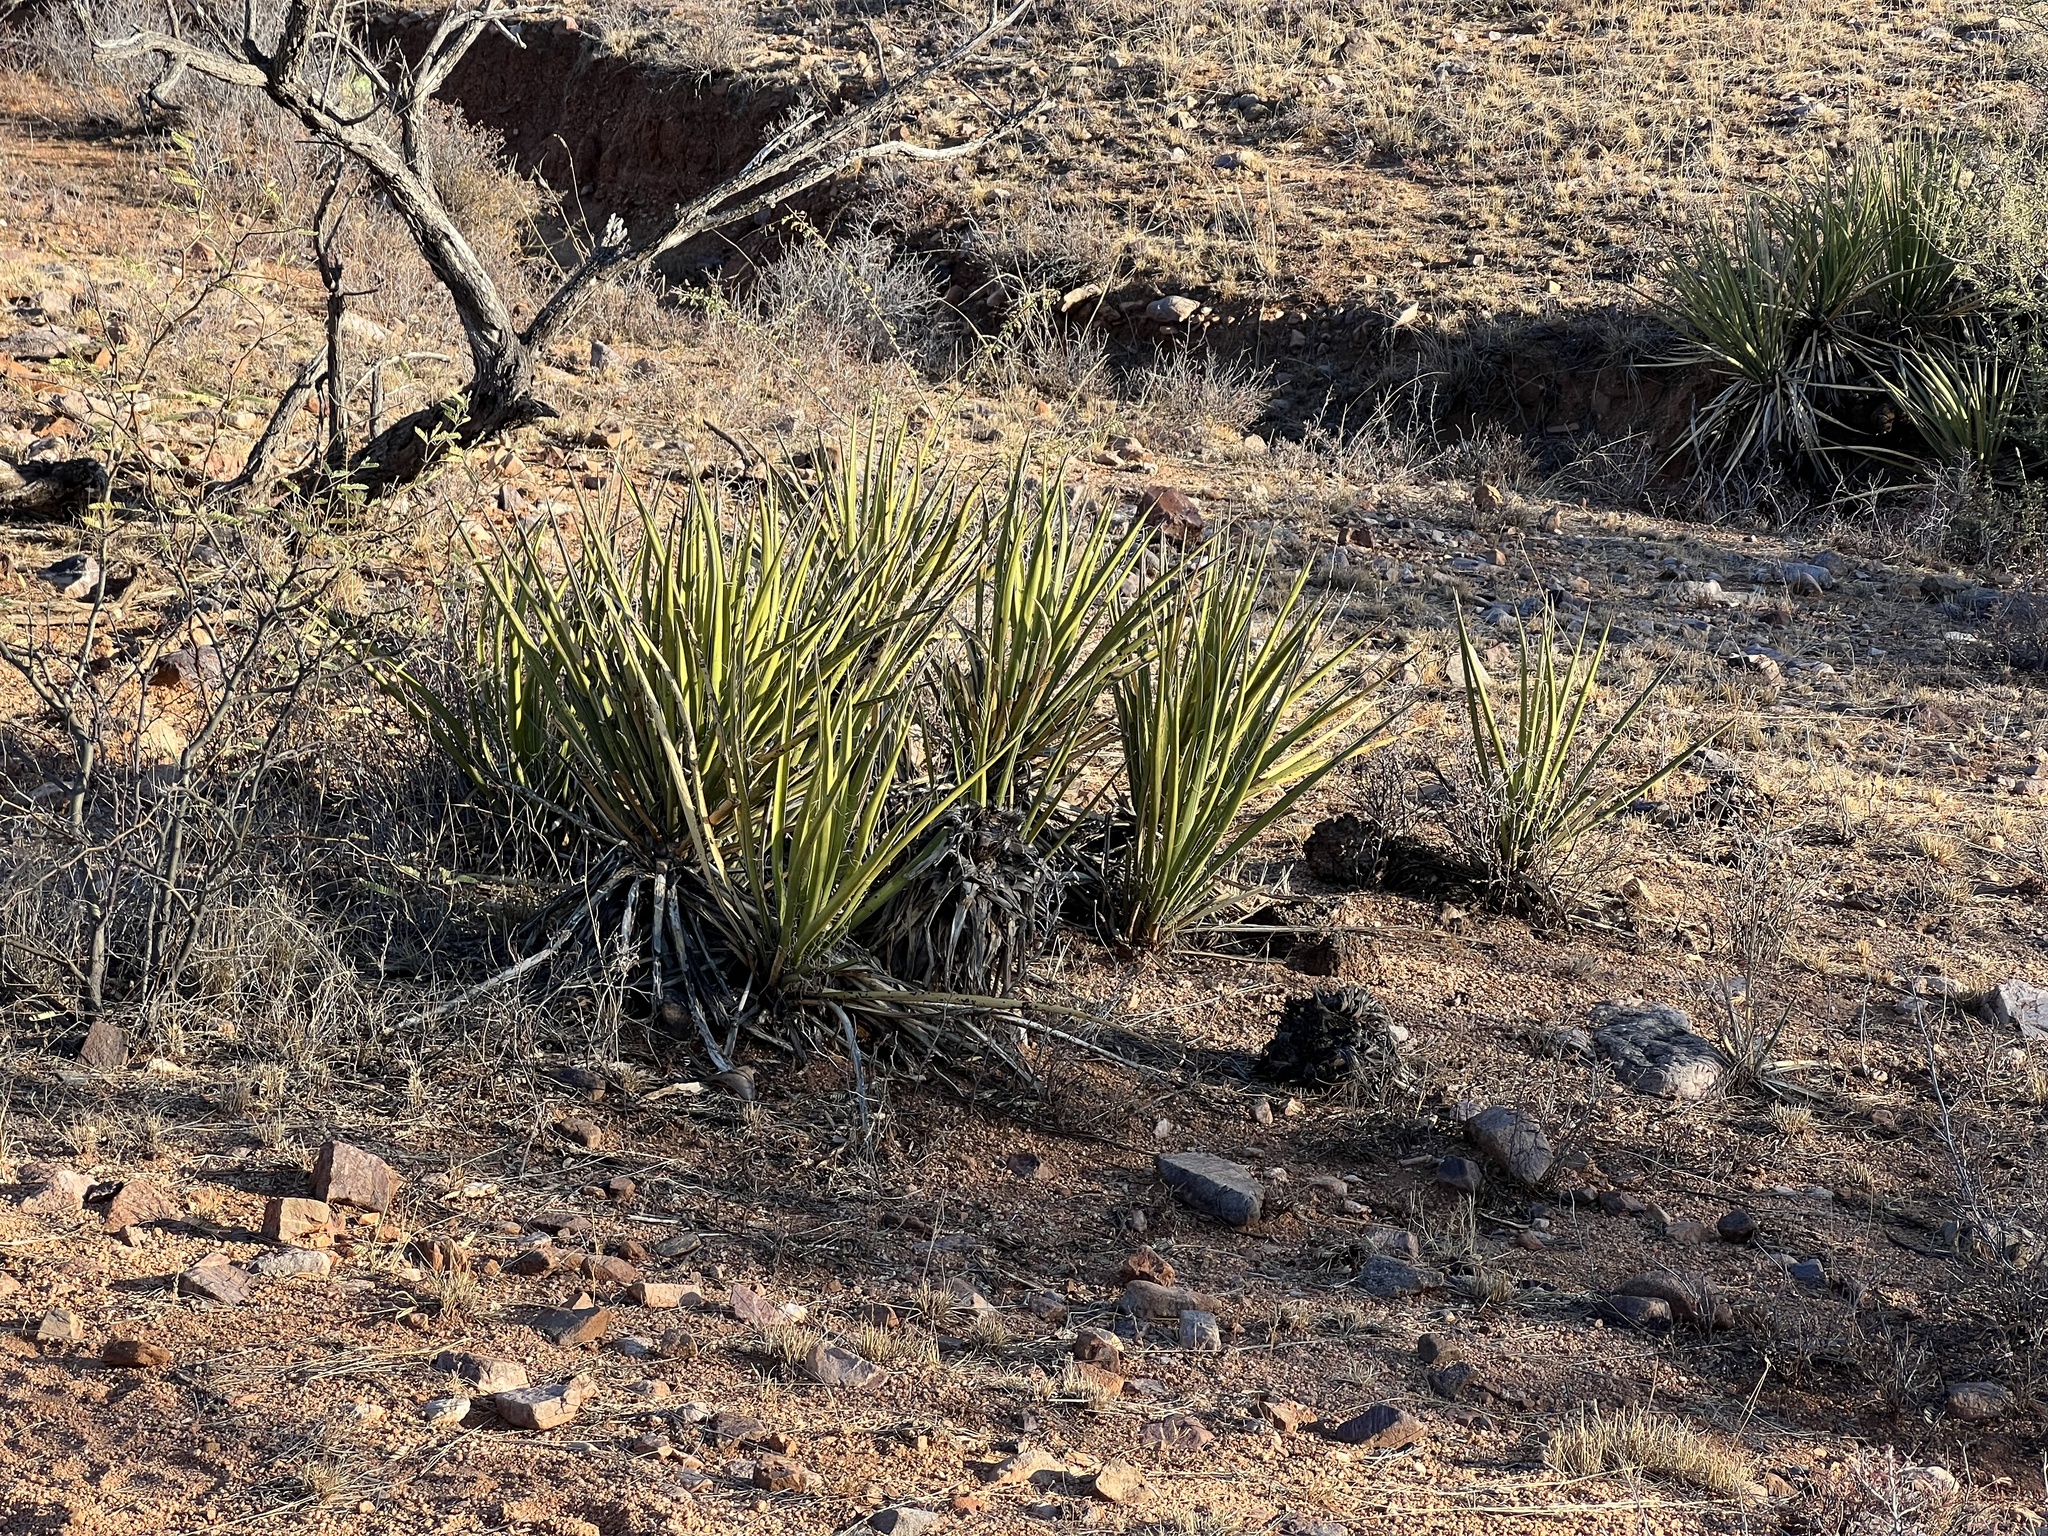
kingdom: Plantae
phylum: Tracheophyta
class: Liliopsida
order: Asparagales
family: Asparagaceae
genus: Yucca
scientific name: Yucca baccata
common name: Banana yucca
